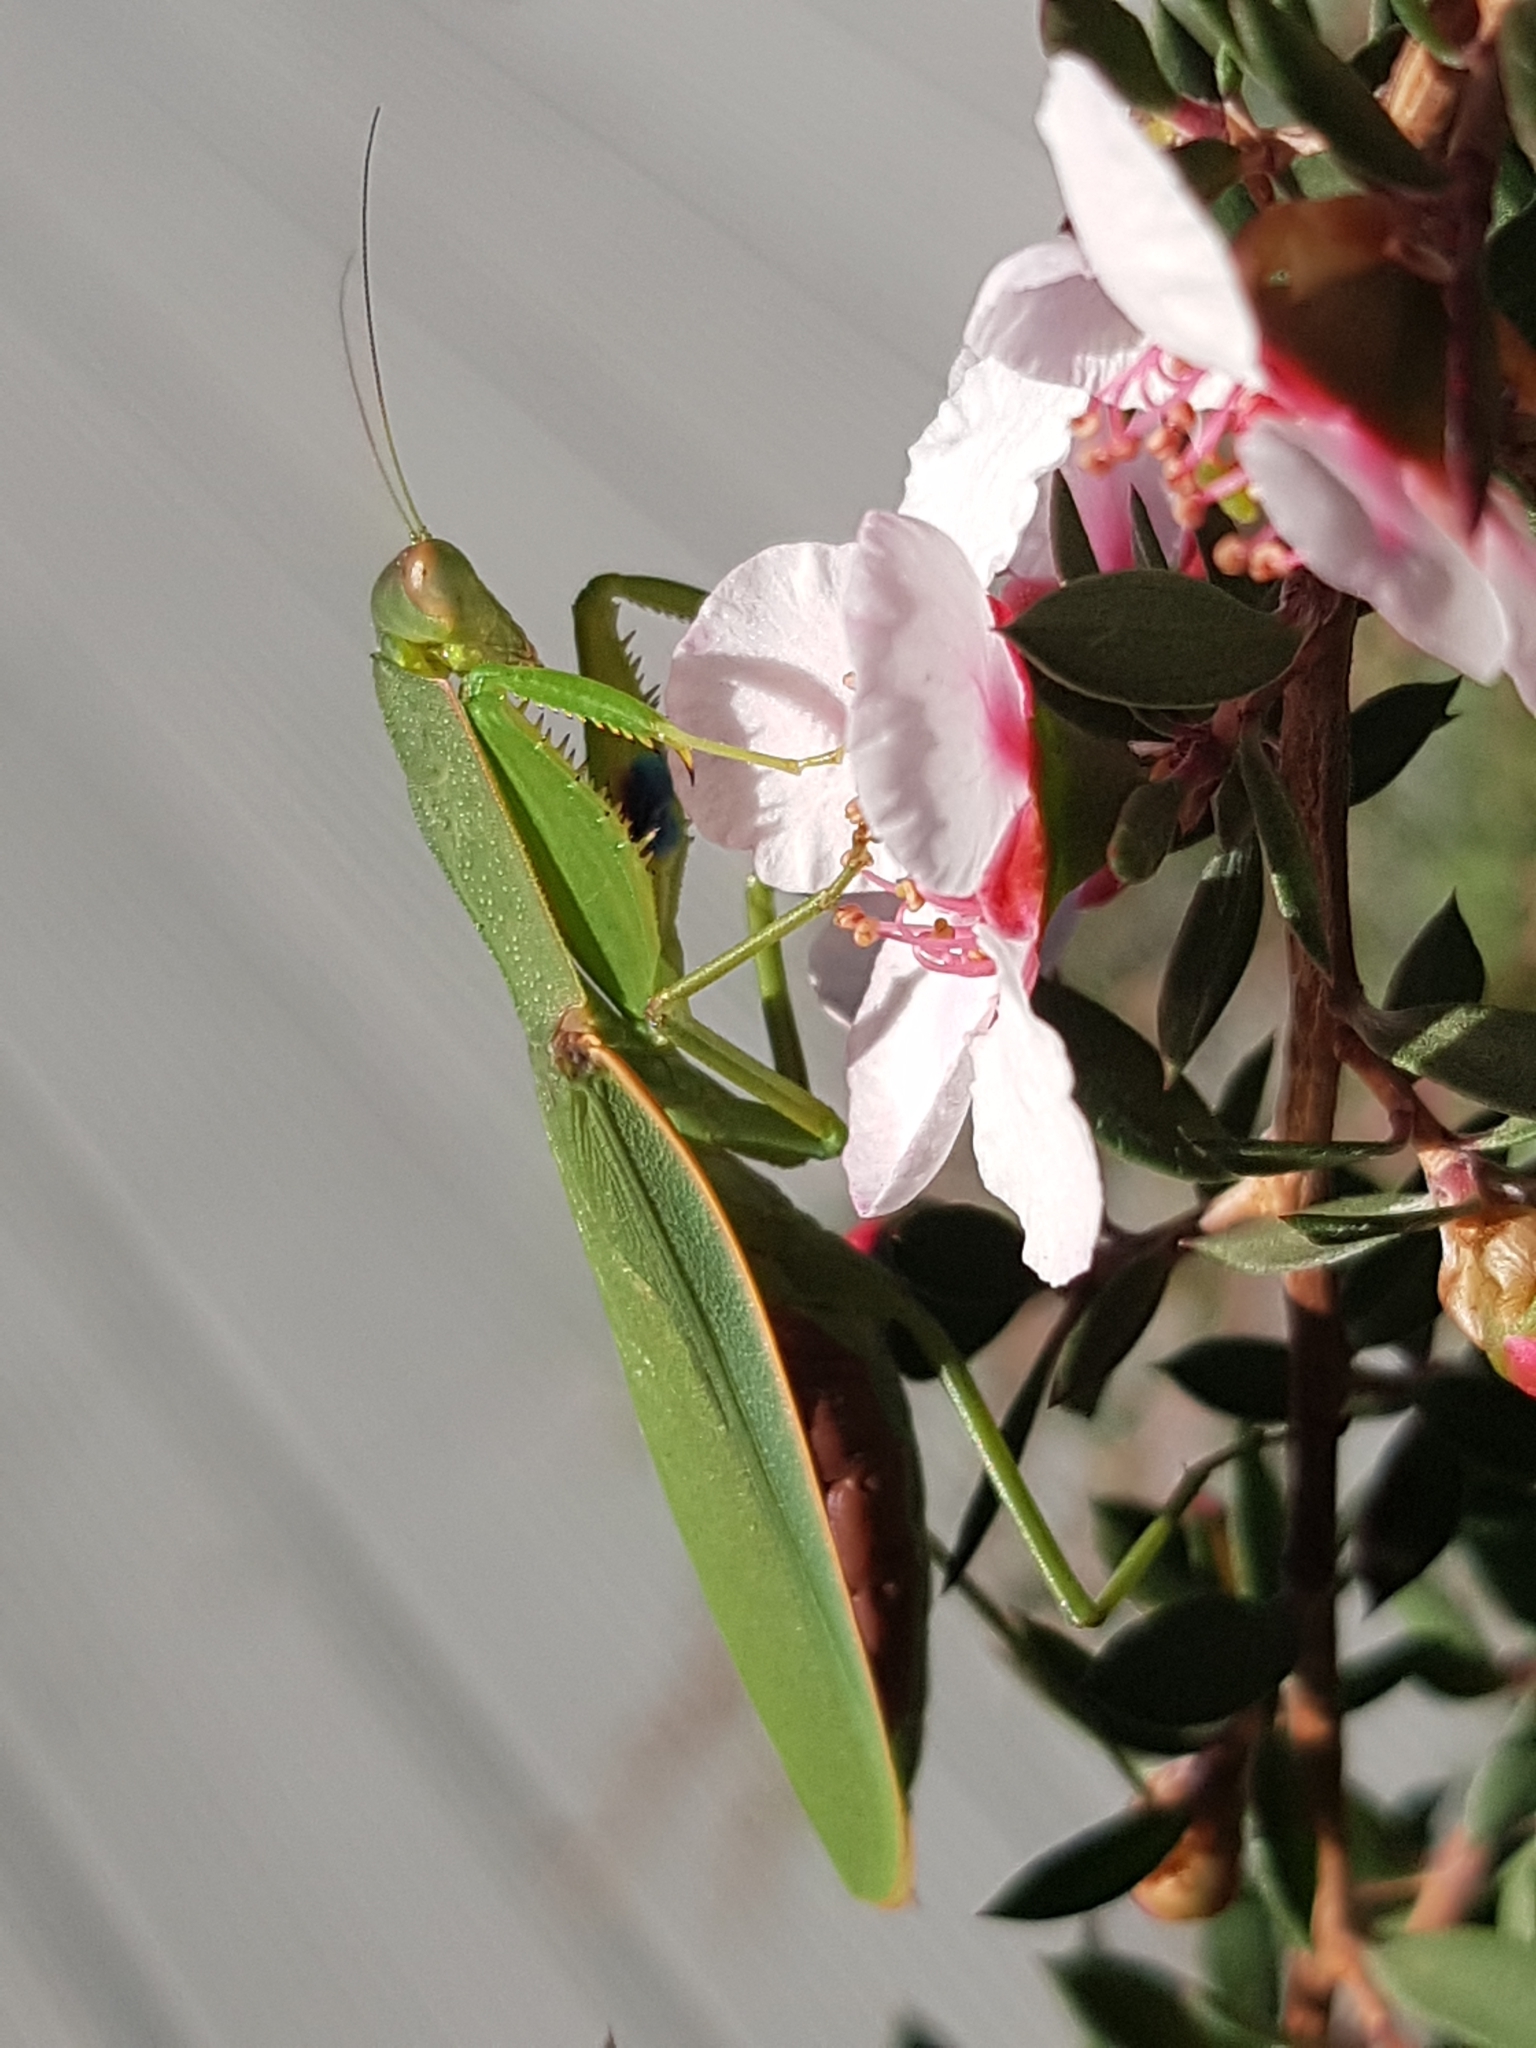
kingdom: Animalia
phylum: Arthropoda
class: Insecta
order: Mantodea
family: Mantidae
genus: Orthodera
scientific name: Orthodera novaezealandiae
